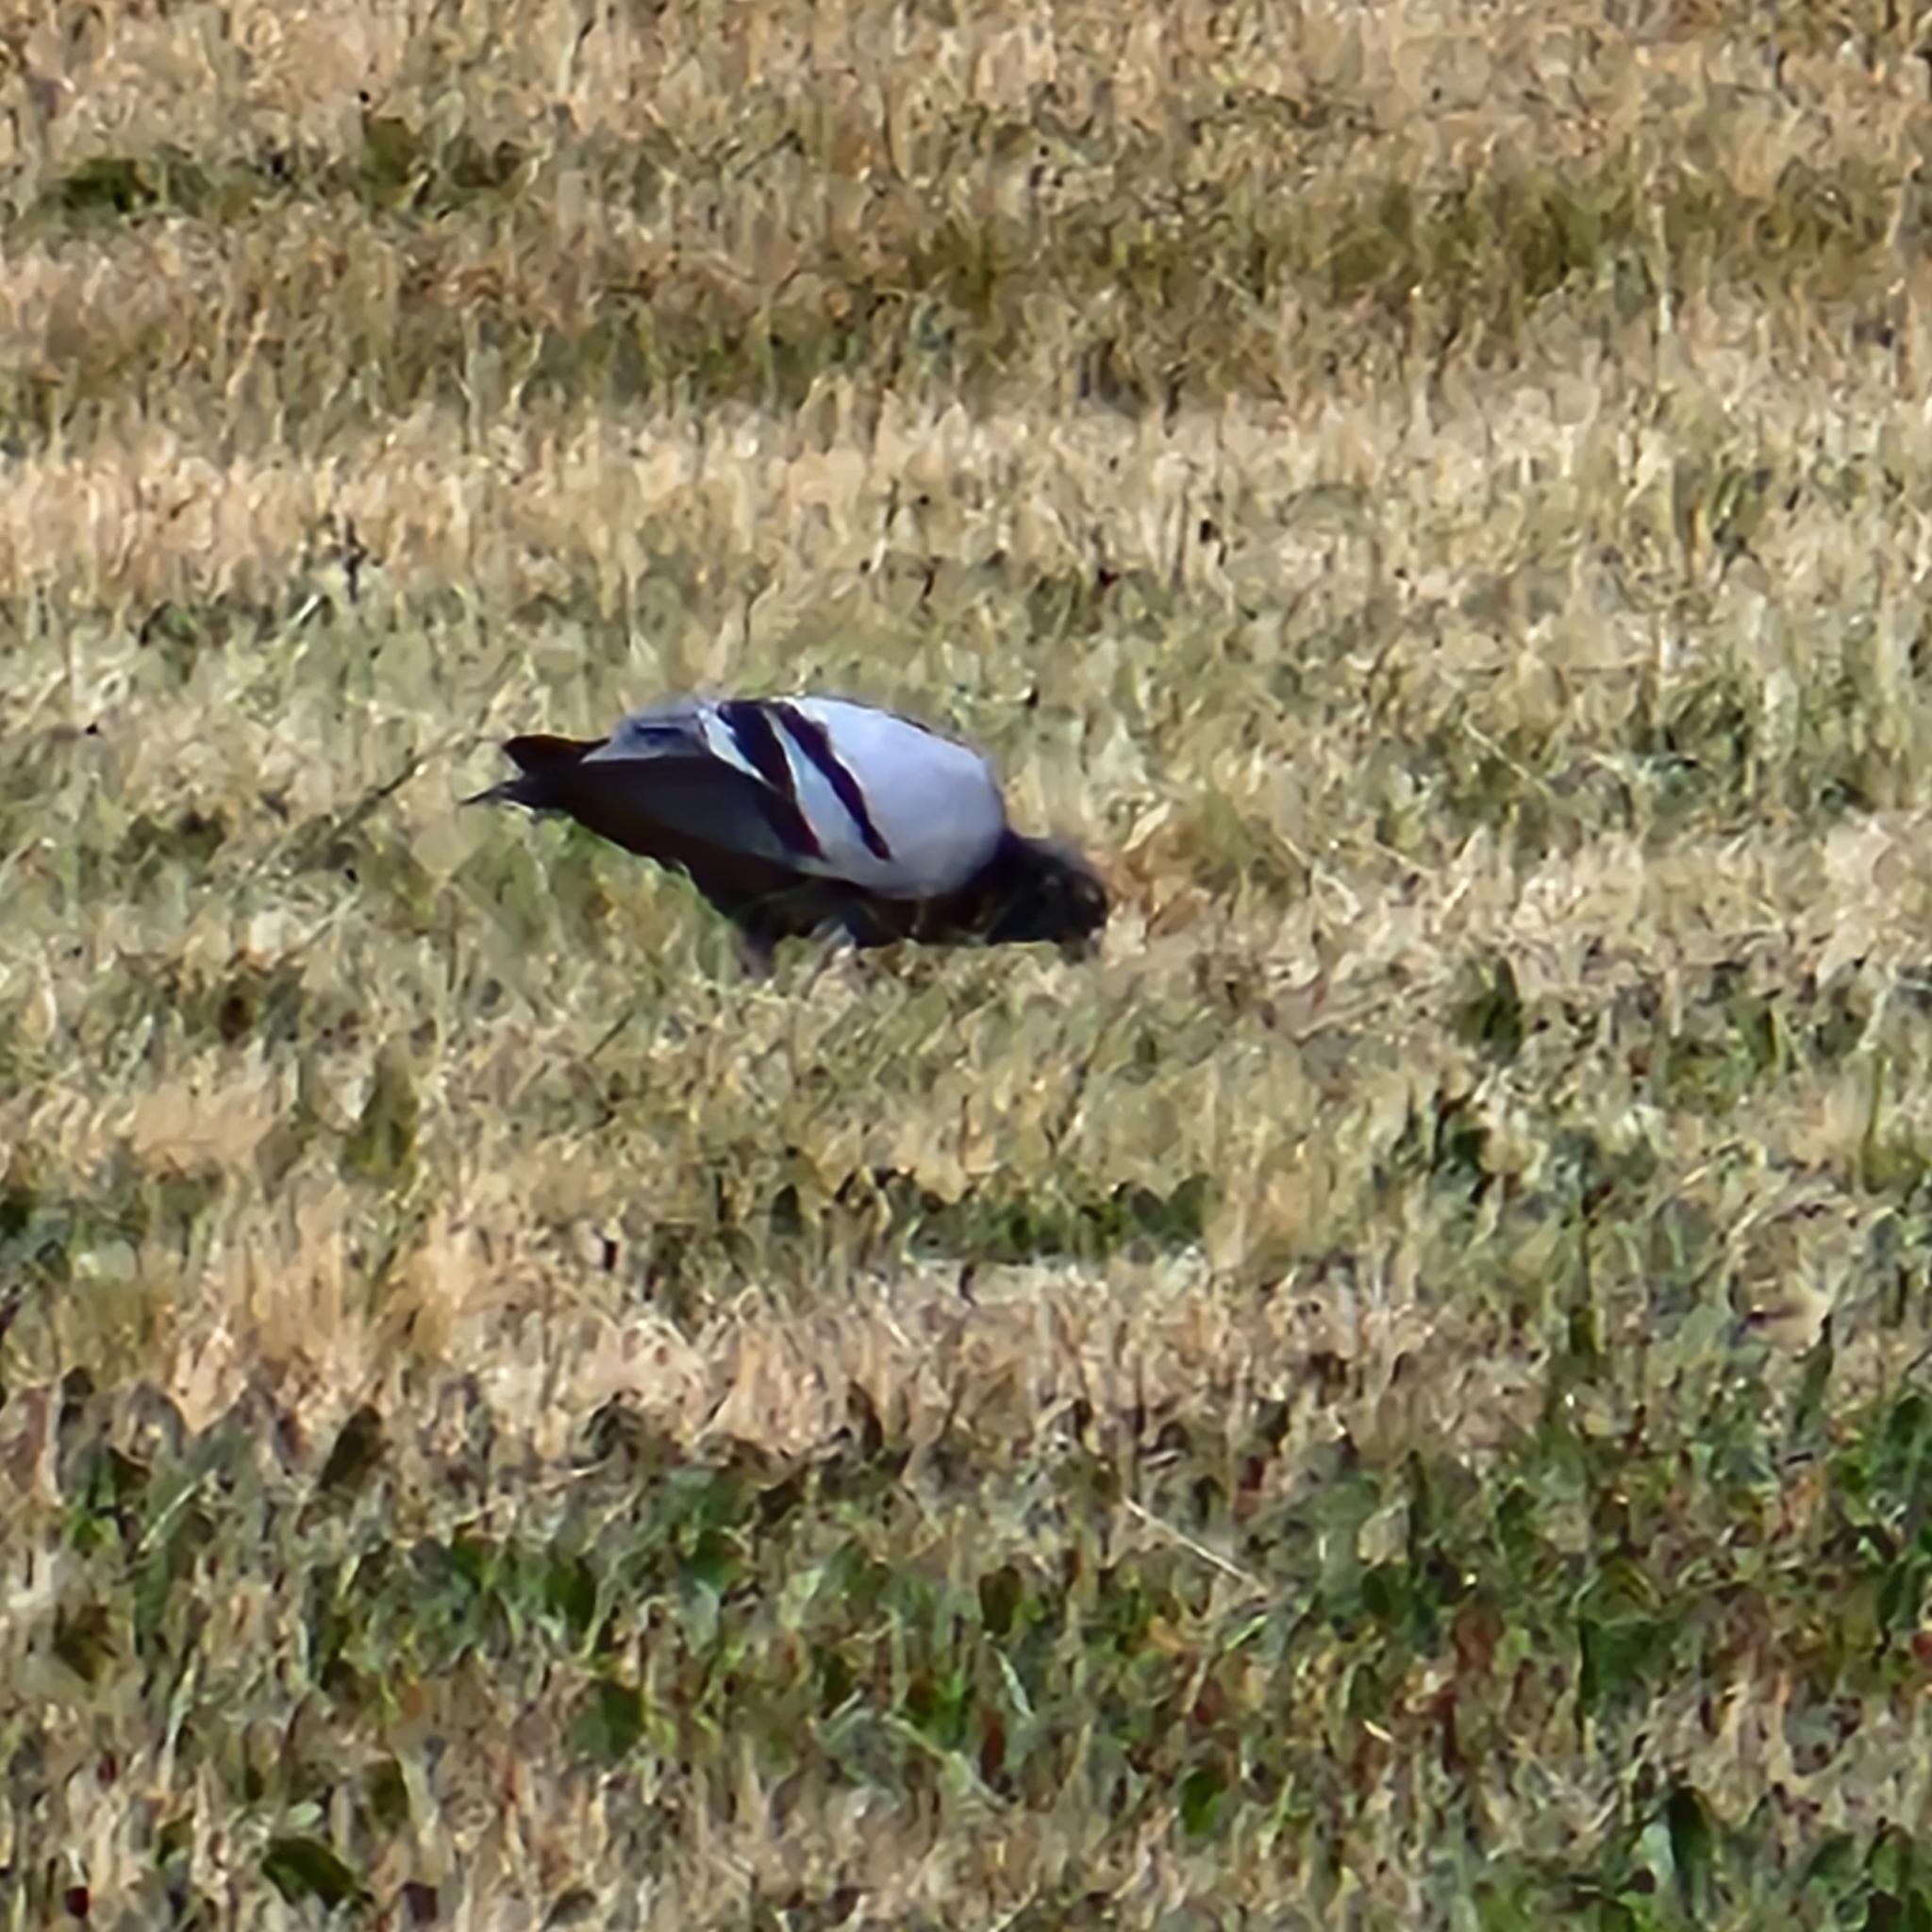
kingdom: Animalia
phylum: Chordata
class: Aves
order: Columbiformes
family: Columbidae
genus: Columba
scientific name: Columba livia
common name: Rock pigeon
